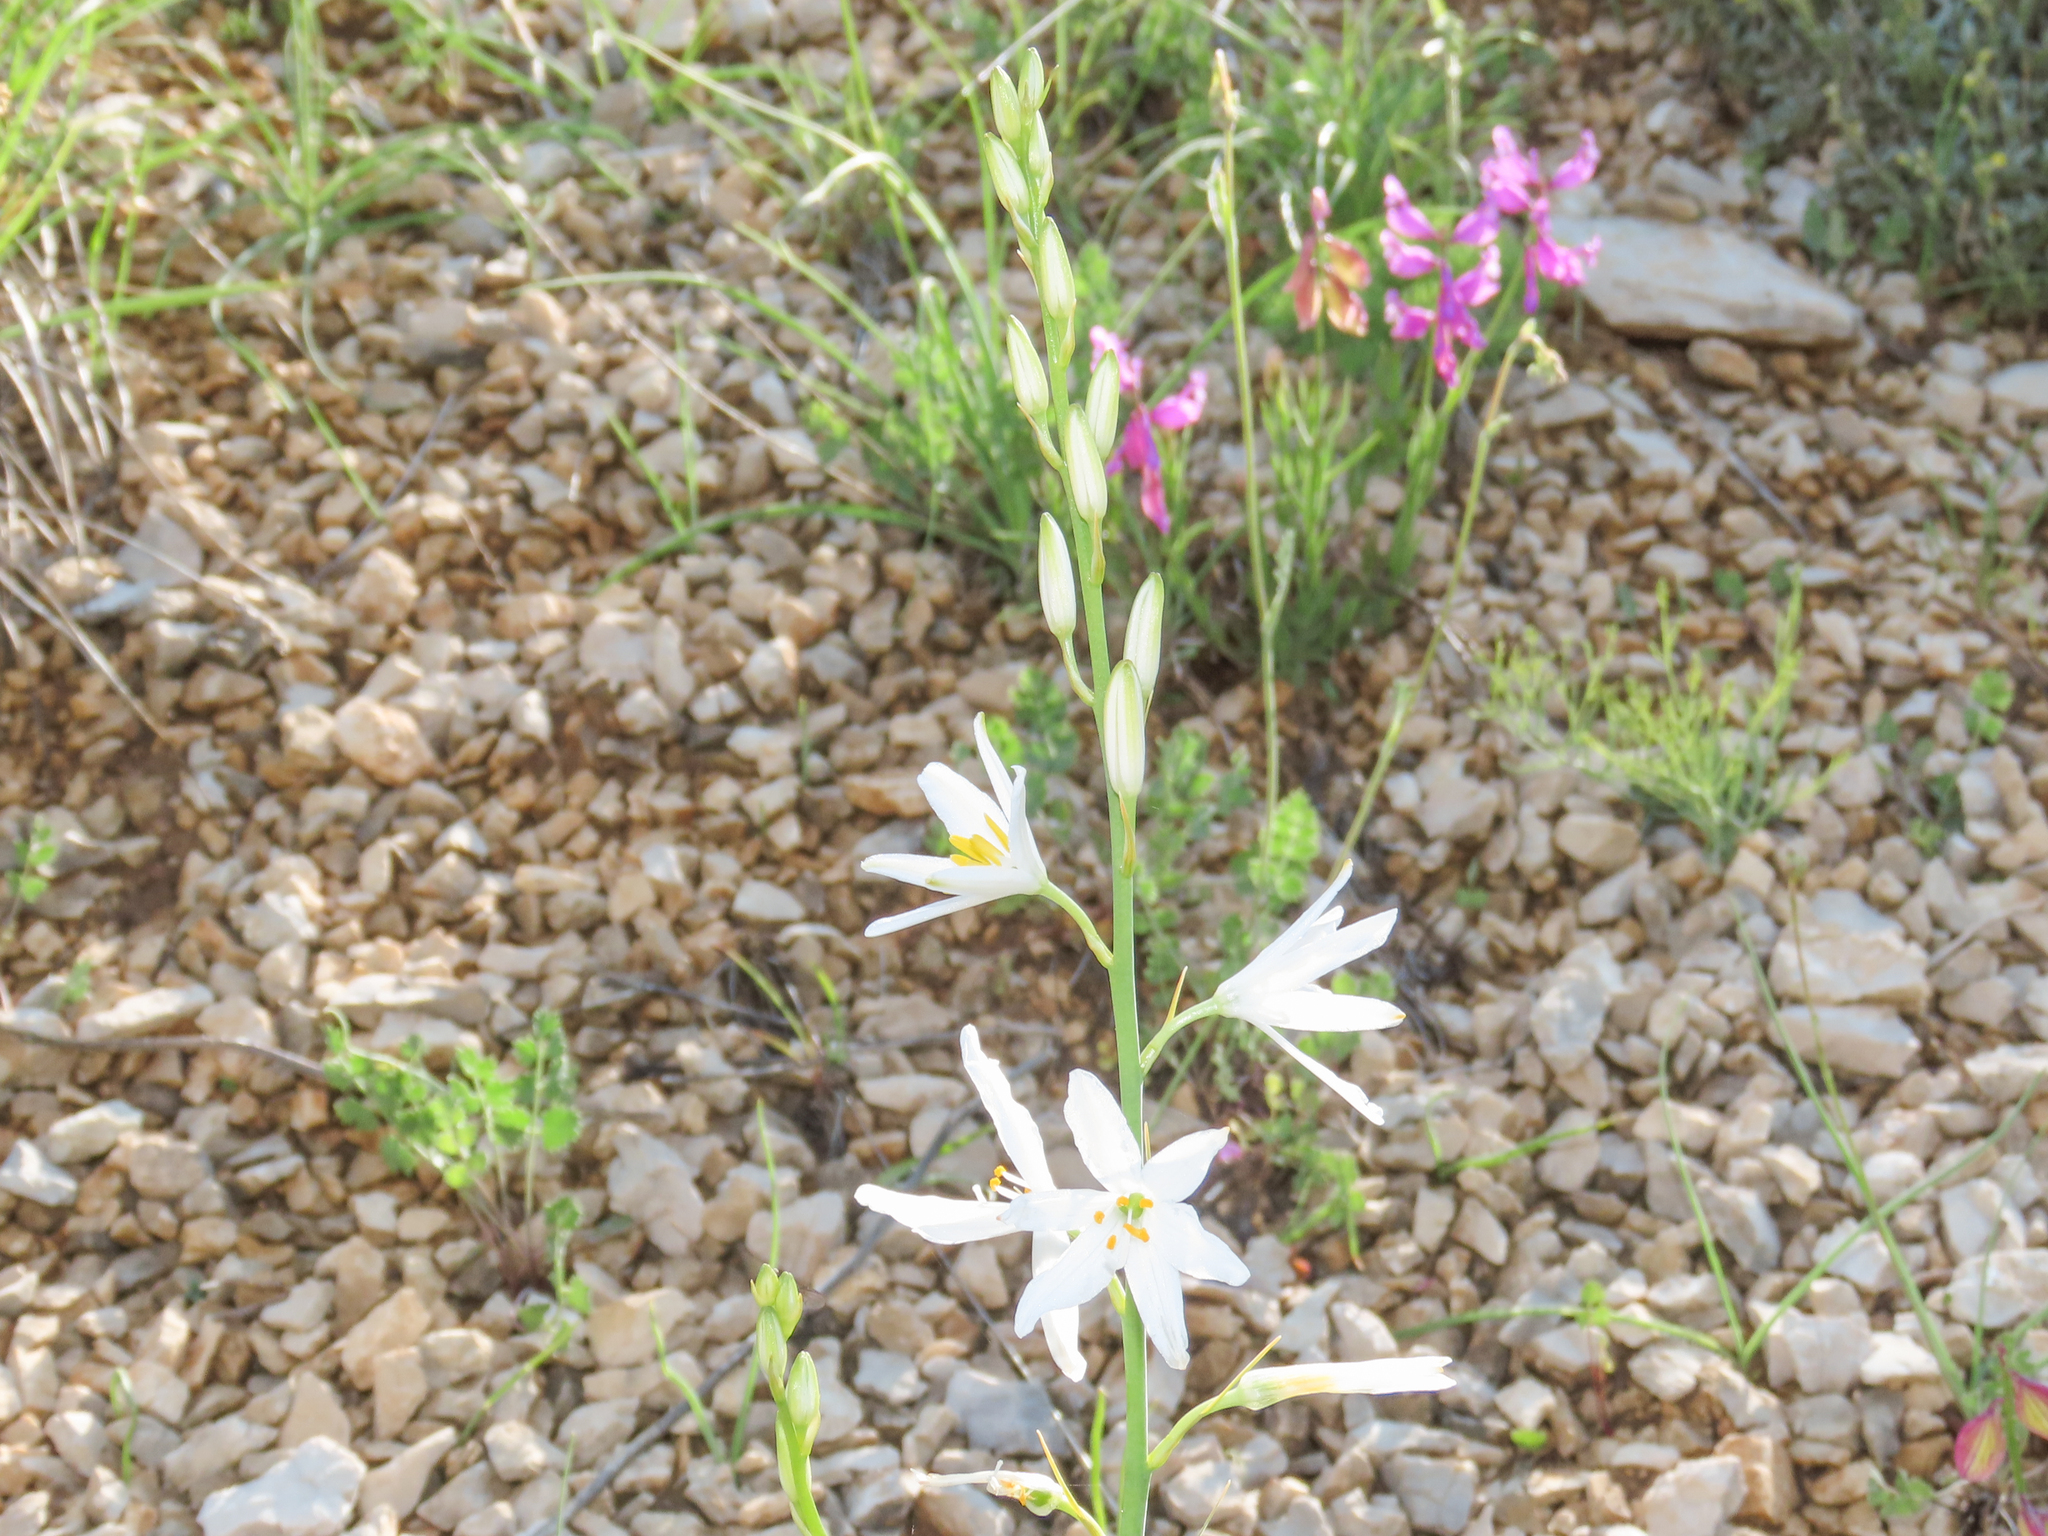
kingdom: Plantae
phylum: Tracheophyta
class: Liliopsida
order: Asparagales
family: Asparagaceae
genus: Anthericum
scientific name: Anthericum liliago
